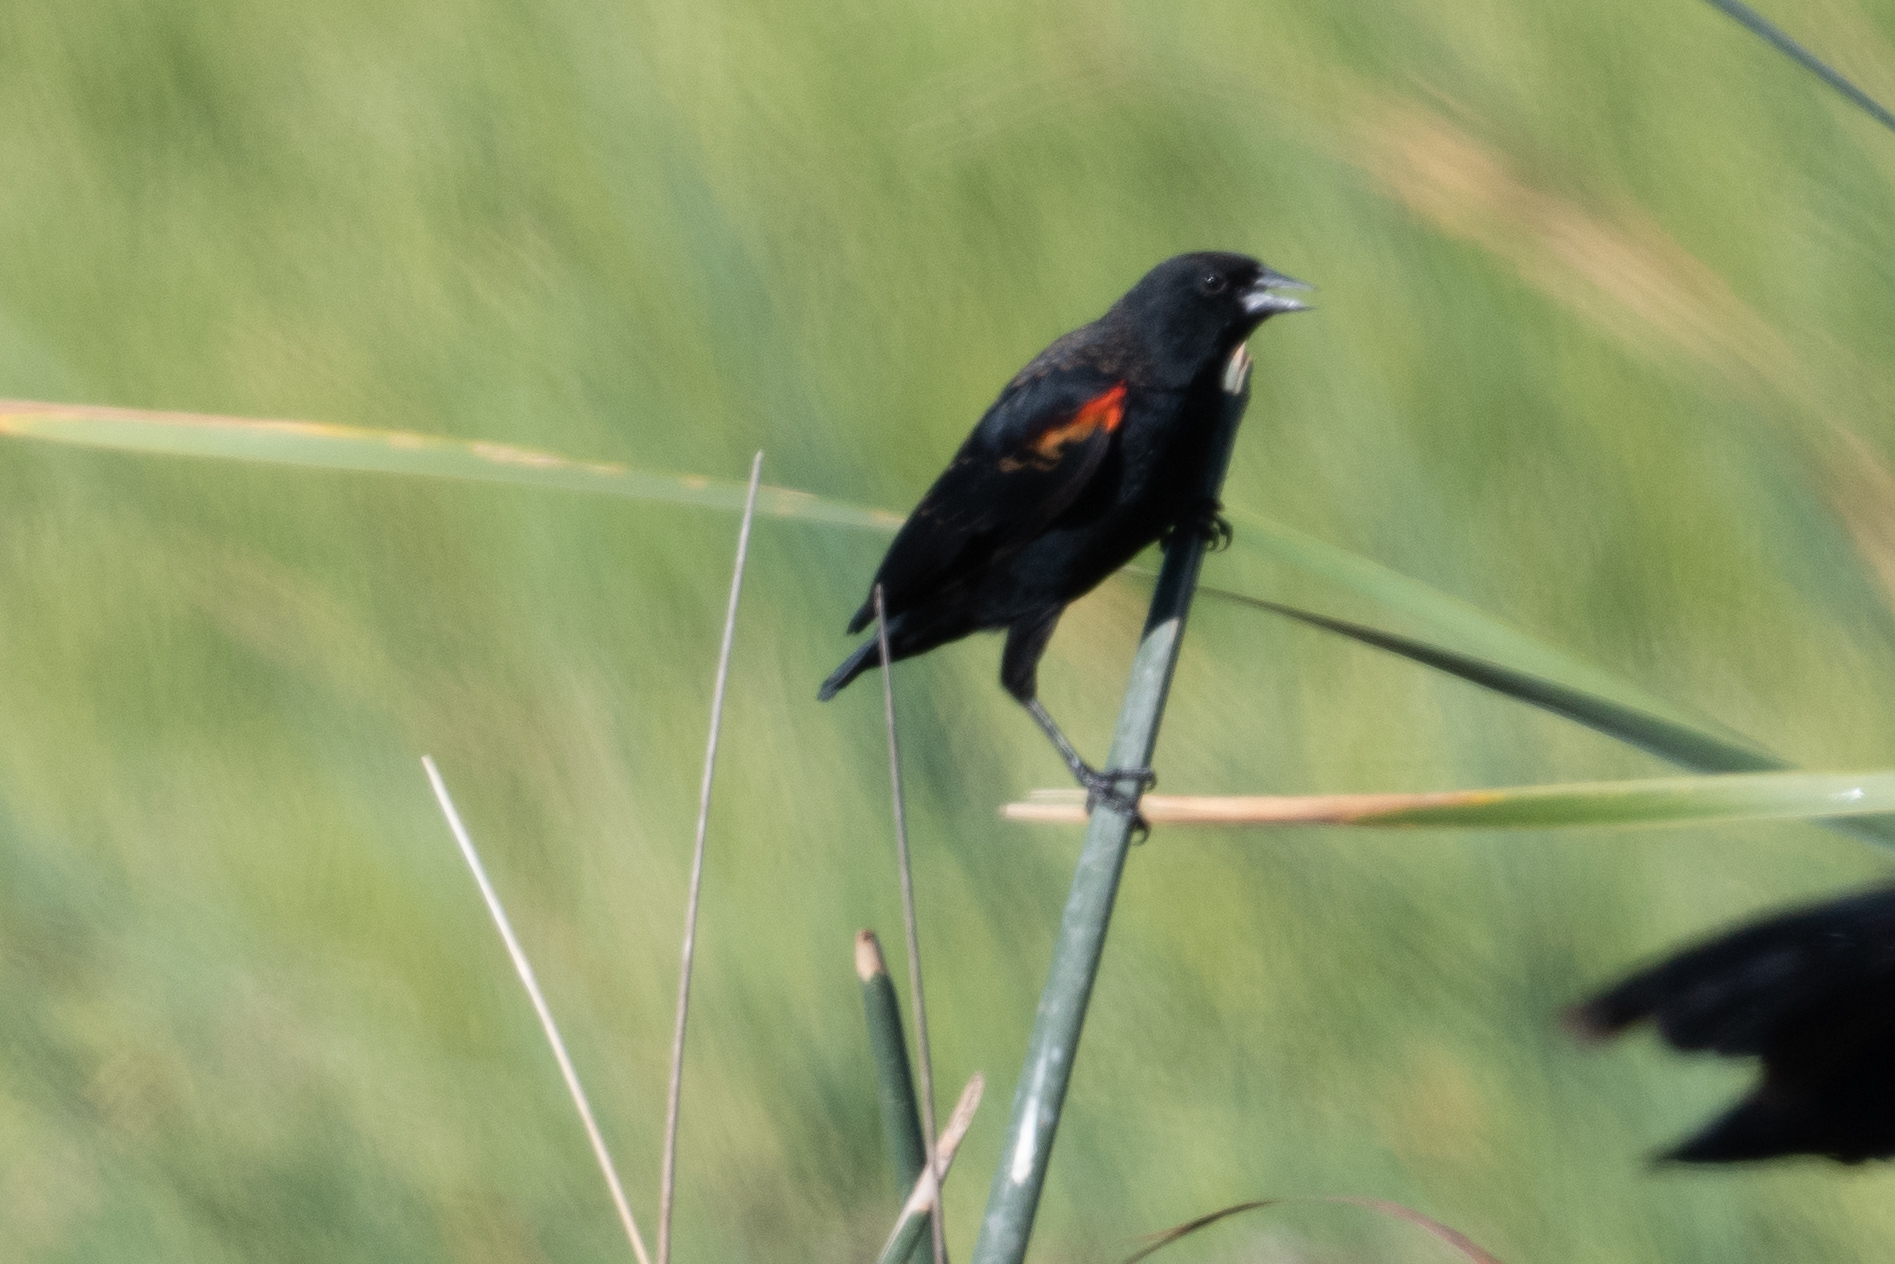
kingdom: Animalia
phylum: Chordata
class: Aves
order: Passeriformes
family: Icteridae
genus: Agelaius
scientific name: Agelaius phoeniceus
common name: Red-winged blackbird
